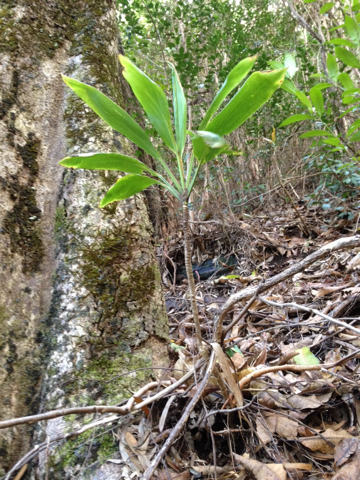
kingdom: Plantae
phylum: Tracheophyta
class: Liliopsida
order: Asparagales
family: Asparagaceae
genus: Cordyline
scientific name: Cordyline fruticosa
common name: Good-luck-plant
